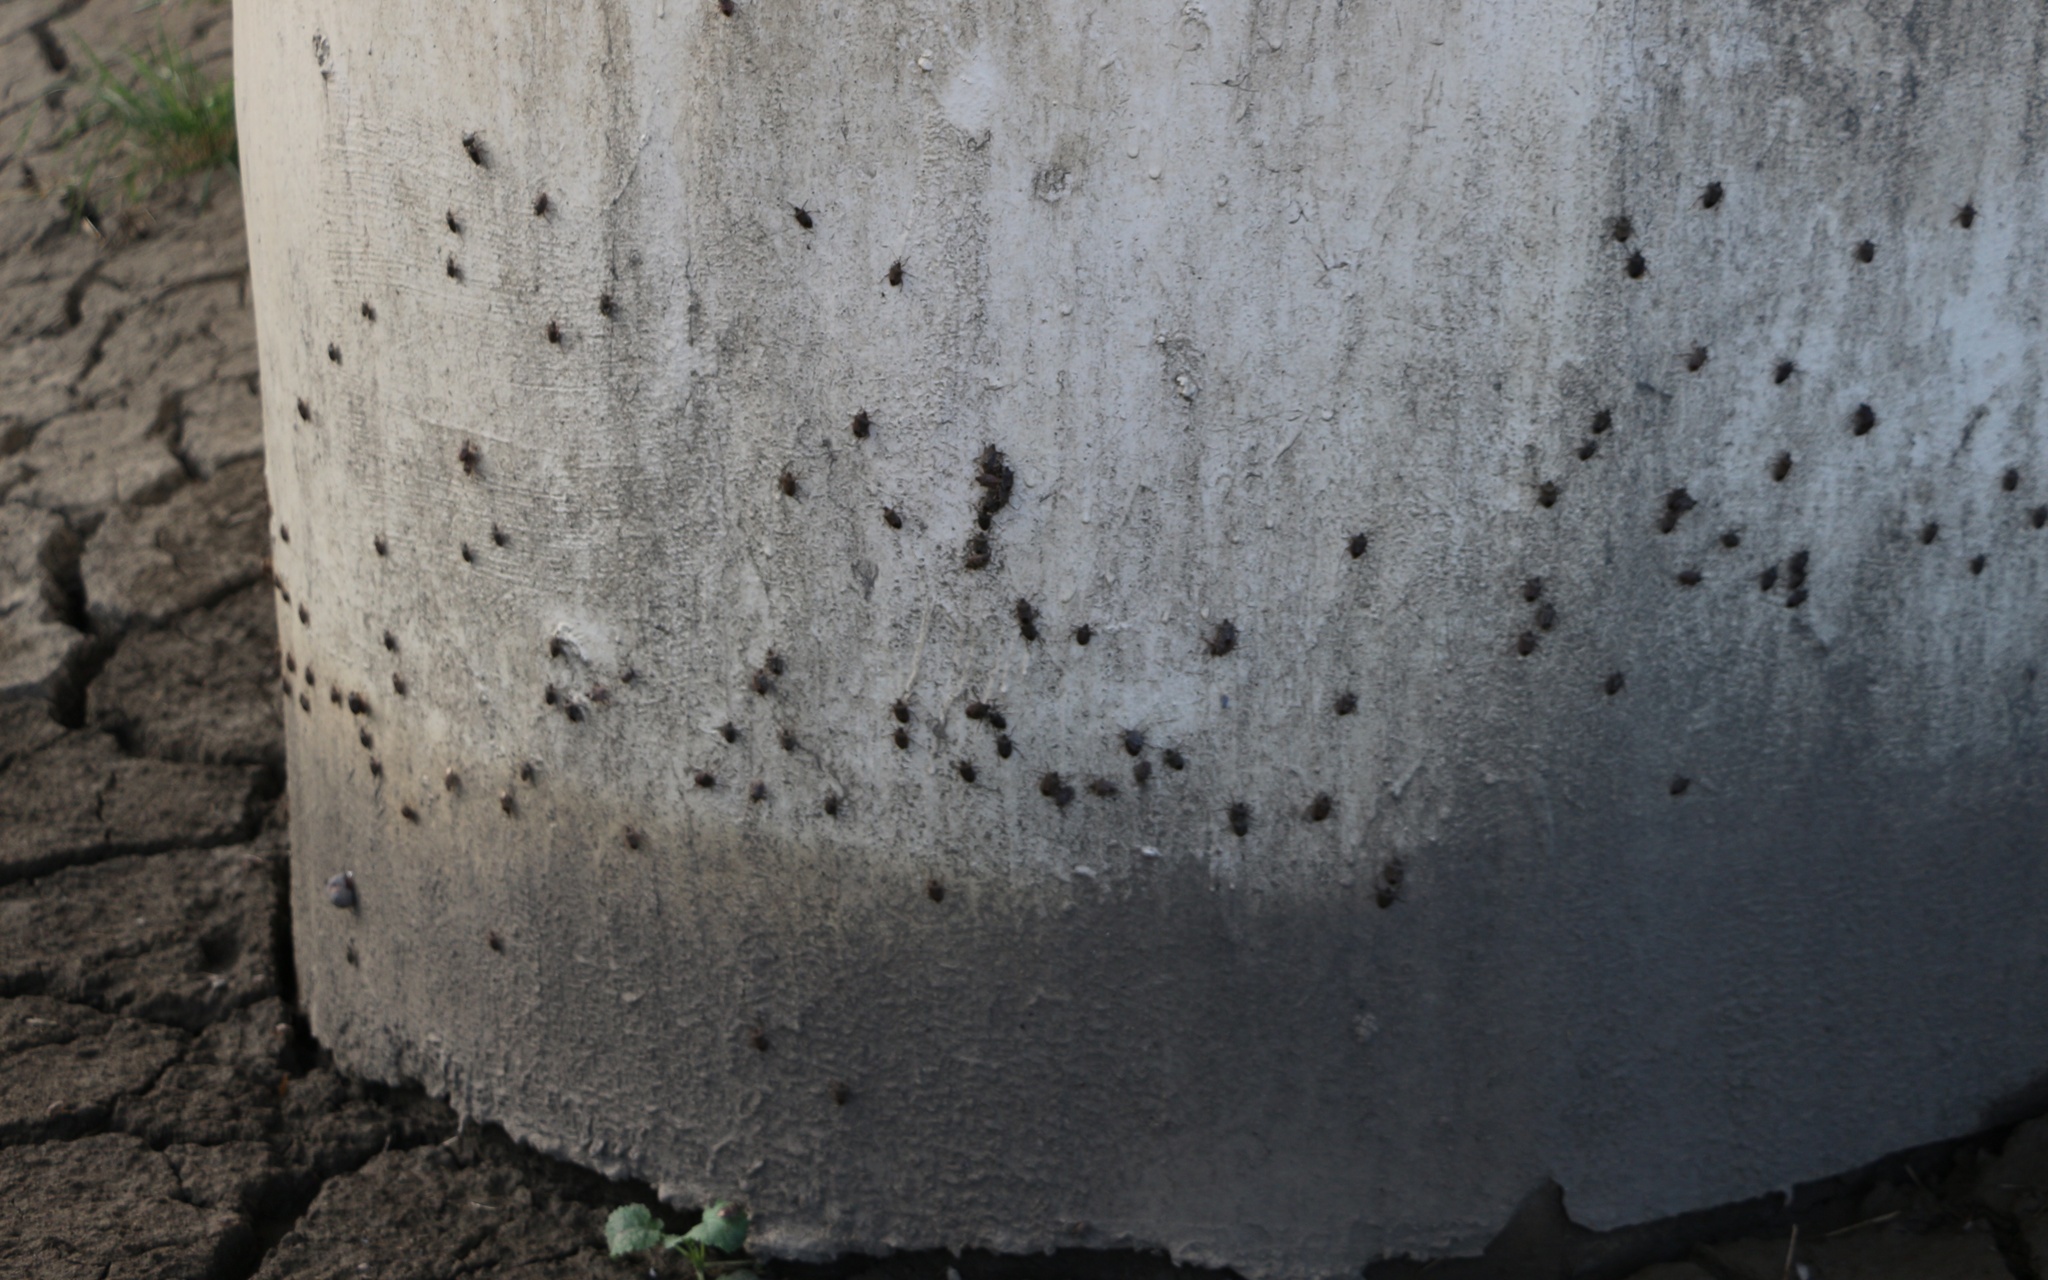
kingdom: Animalia
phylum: Arthropoda
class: Insecta
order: Hemiptera
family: Pentatomidae
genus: Halyomorpha
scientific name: Halyomorpha halys
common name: Brown marmorated stink bug
